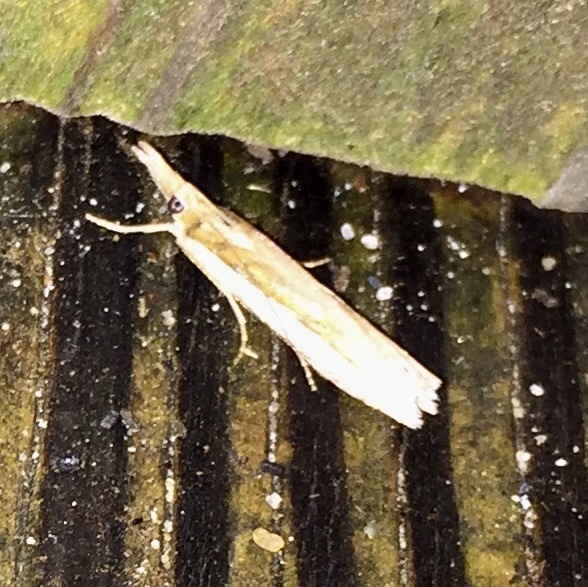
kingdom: Animalia
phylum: Arthropoda
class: Insecta
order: Lepidoptera
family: Crambidae
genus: Crambus
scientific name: Crambus
